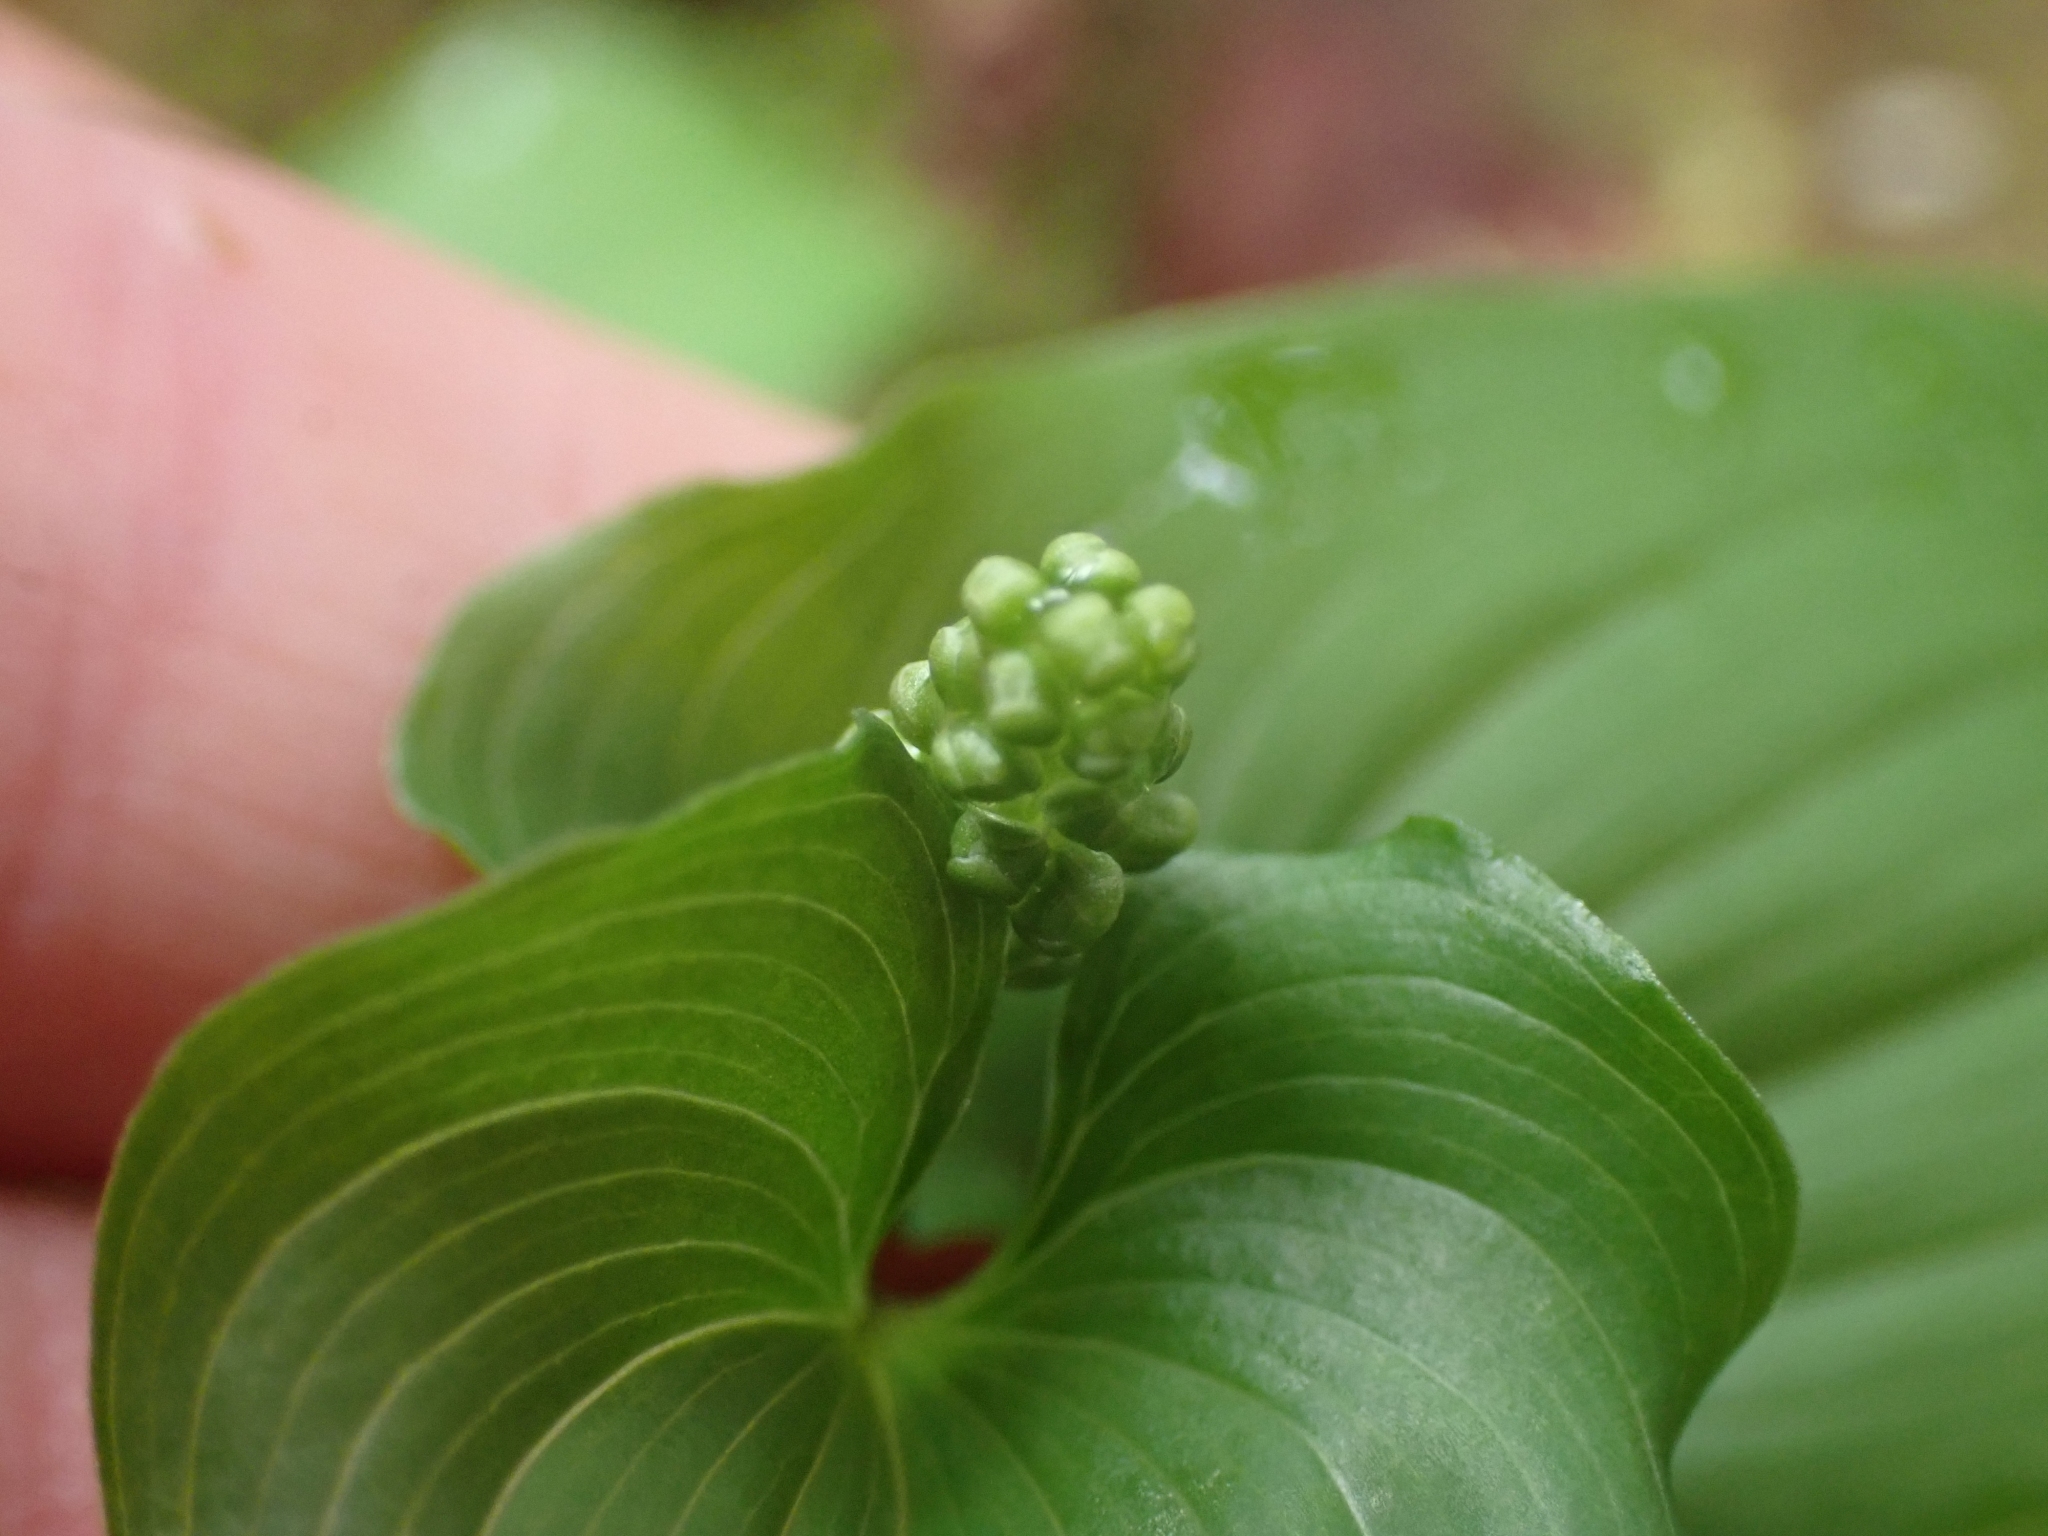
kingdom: Plantae
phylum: Tracheophyta
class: Liliopsida
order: Asparagales
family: Asparagaceae
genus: Maianthemum
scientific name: Maianthemum dilatatum
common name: False lily-of-the-valley
